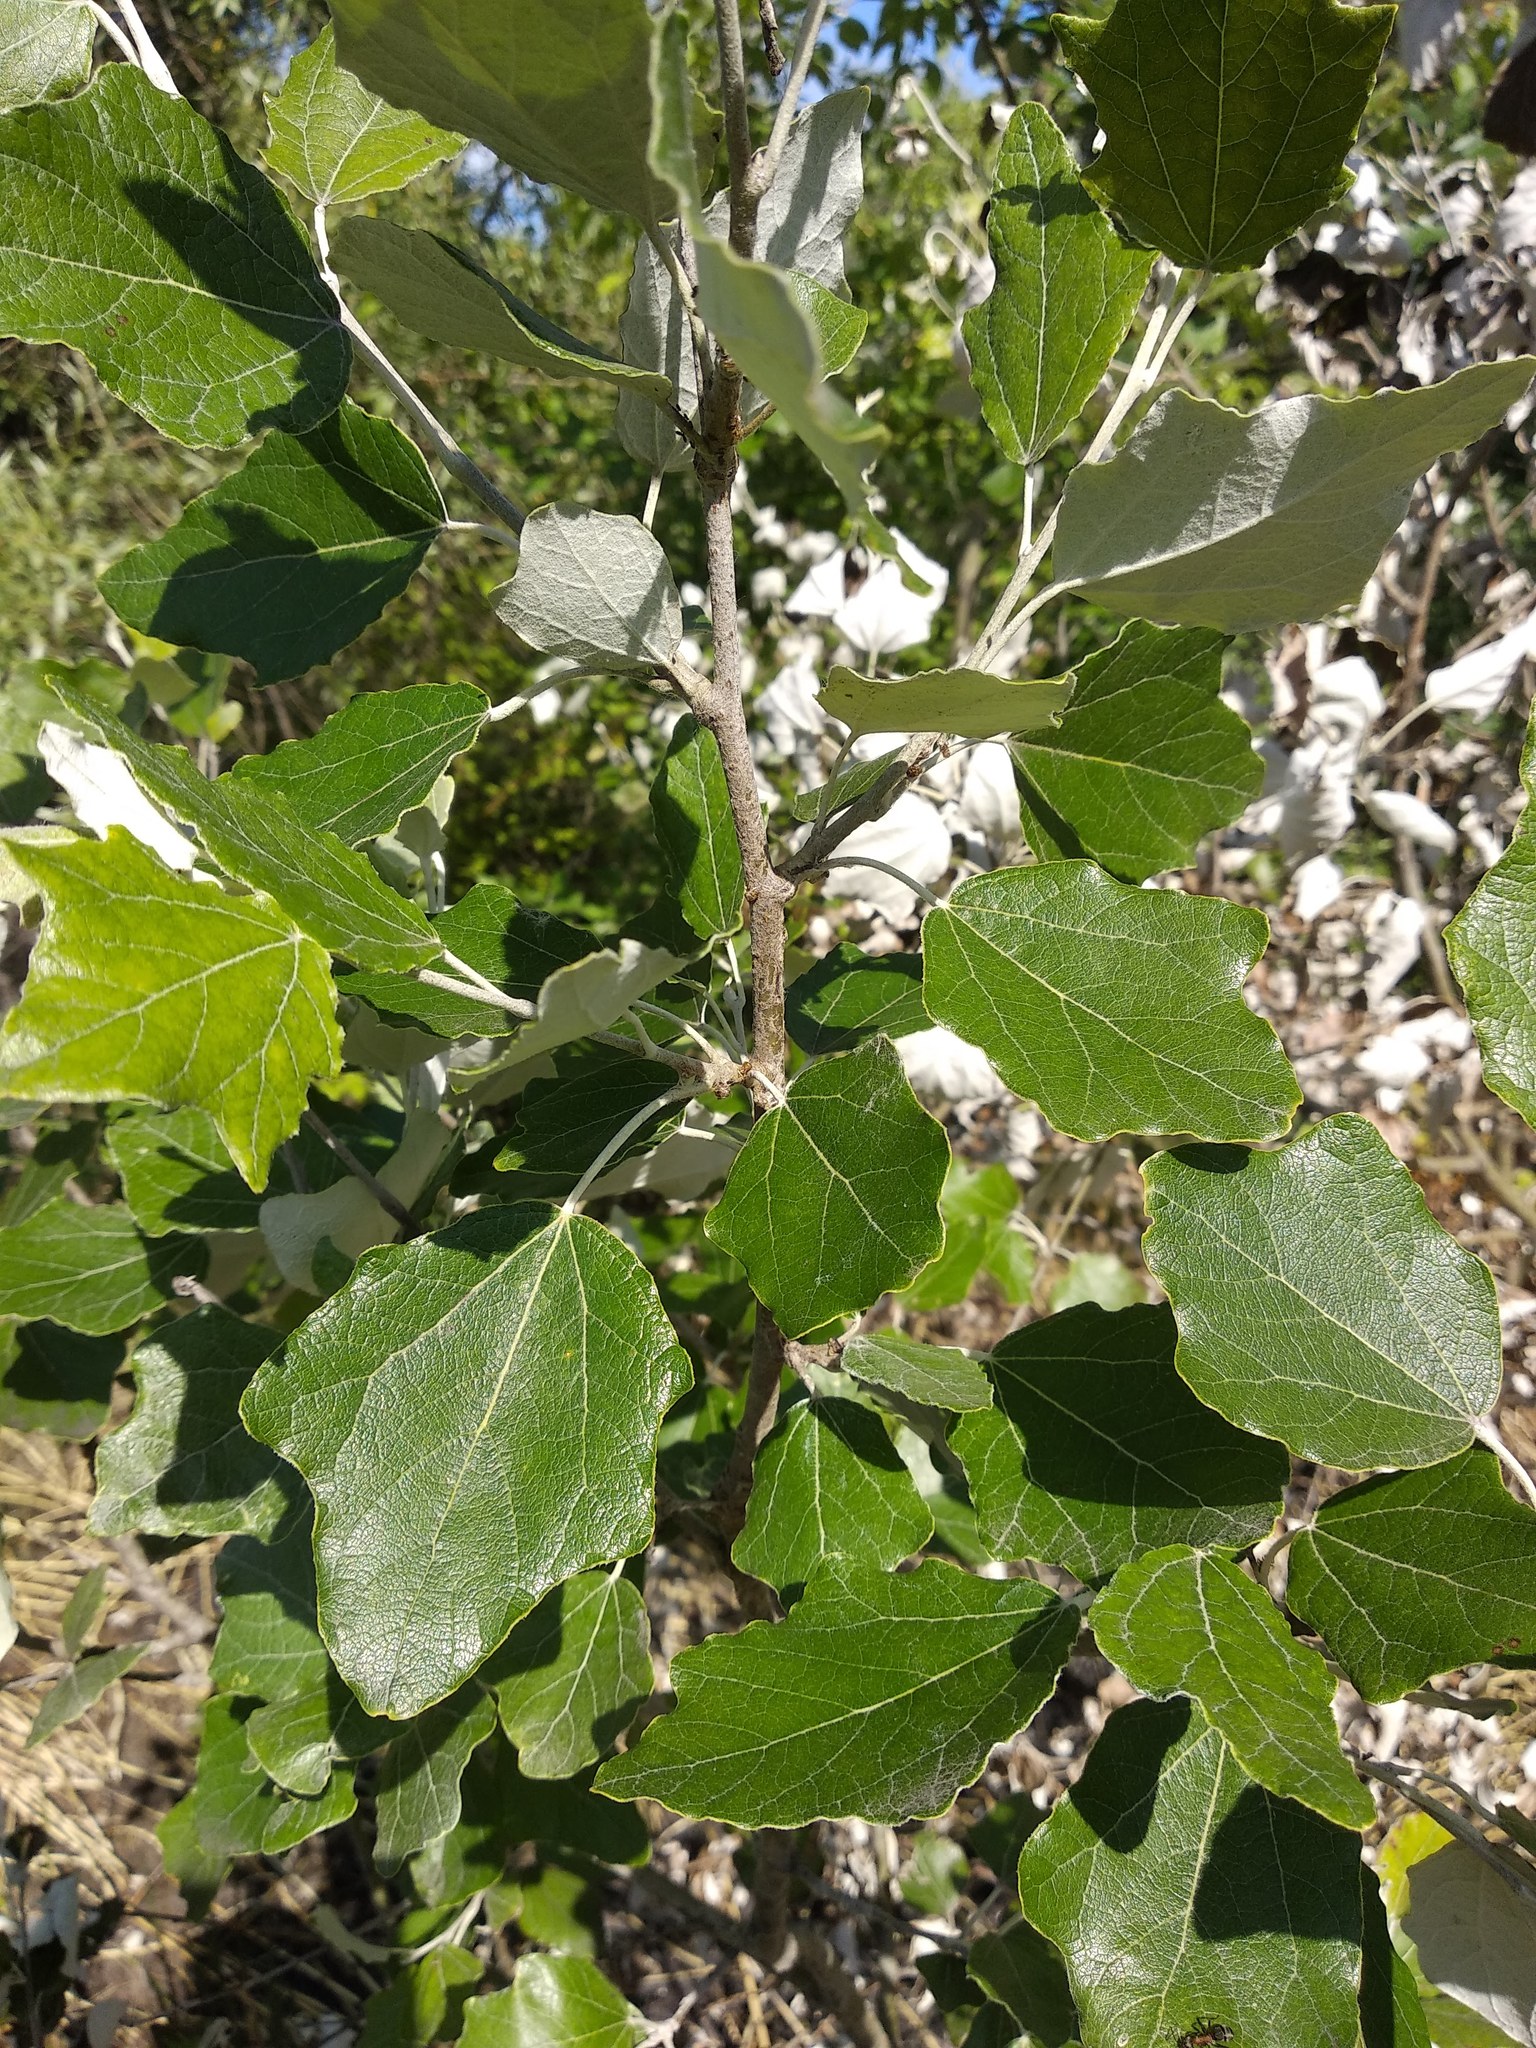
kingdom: Plantae
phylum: Tracheophyta
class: Magnoliopsida
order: Malpighiales
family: Salicaceae
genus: Populus
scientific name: Populus alba
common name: White poplar
